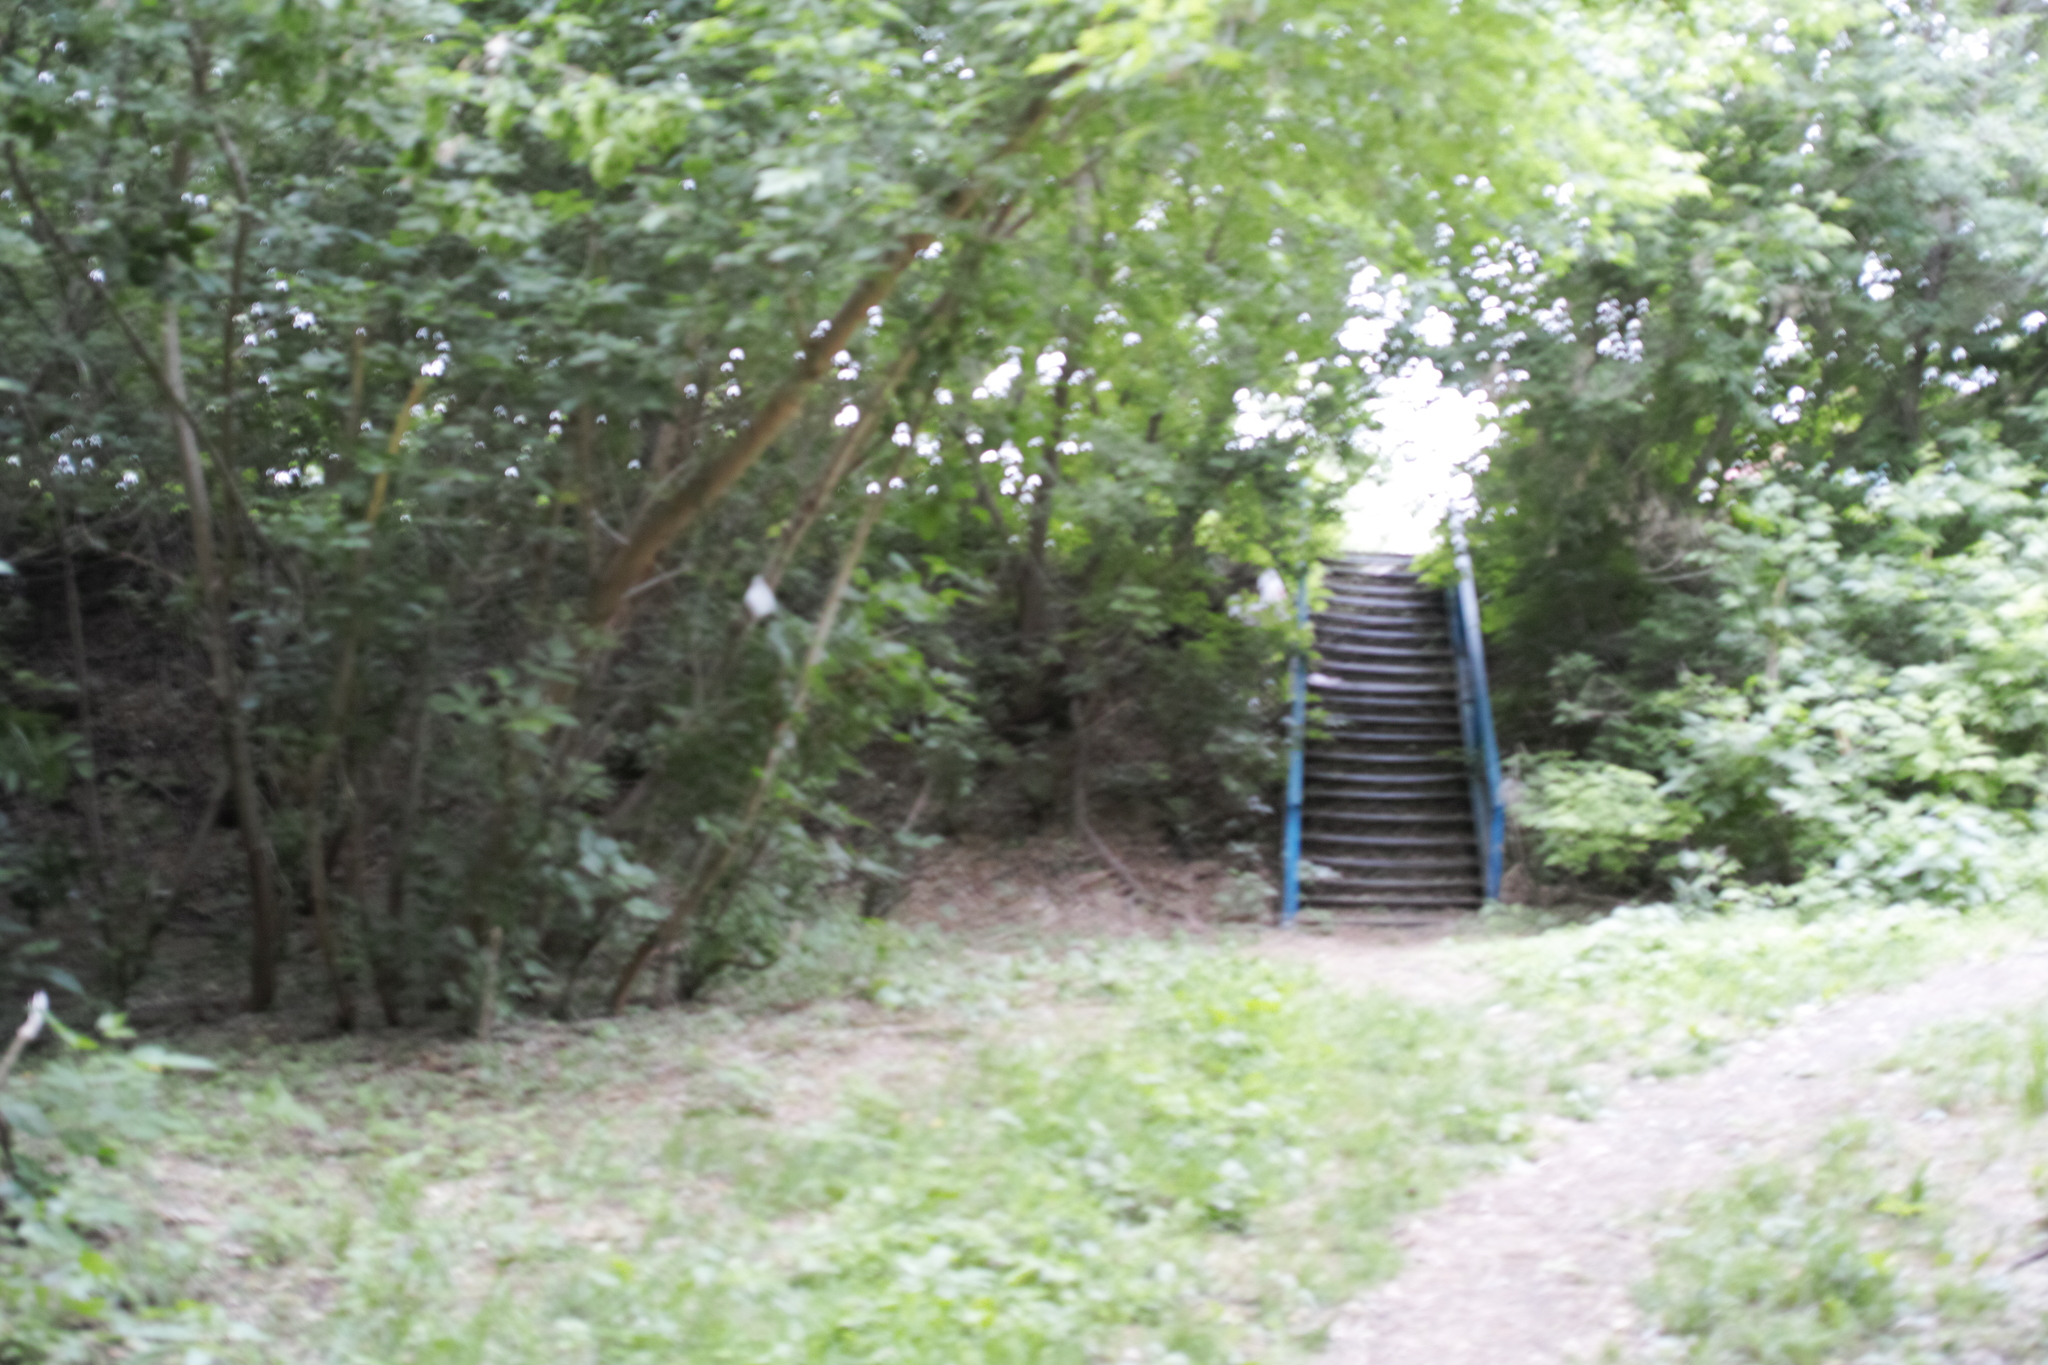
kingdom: Plantae
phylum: Tracheophyta
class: Magnoliopsida
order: Sapindales
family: Sapindaceae
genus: Acer
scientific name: Acer negundo
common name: Ashleaf maple
